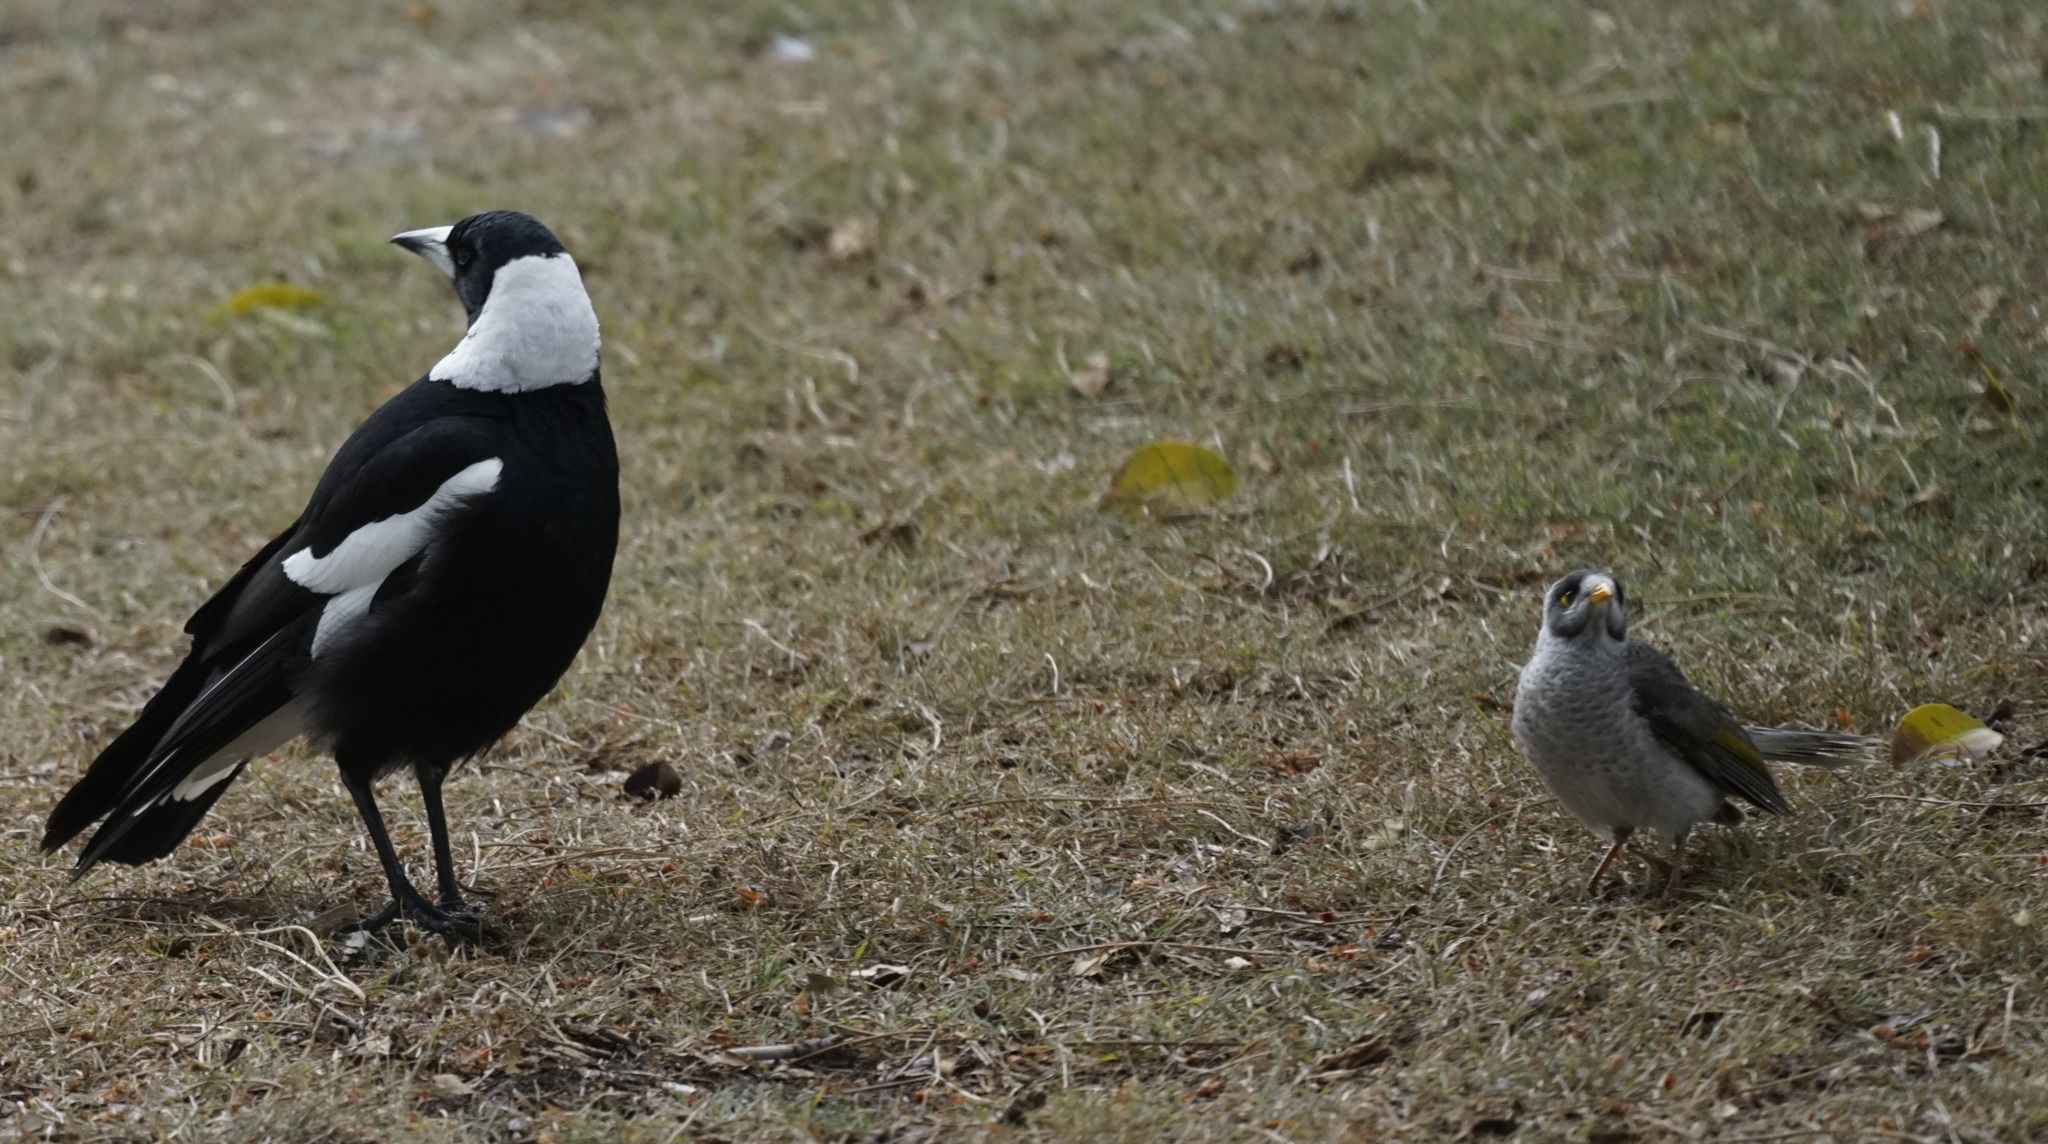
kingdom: Animalia
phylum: Chordata
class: Aves
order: Passeriformes
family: Meliphagidae
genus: Manorina
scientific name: Manorina melanocephala
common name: Noisy miner
